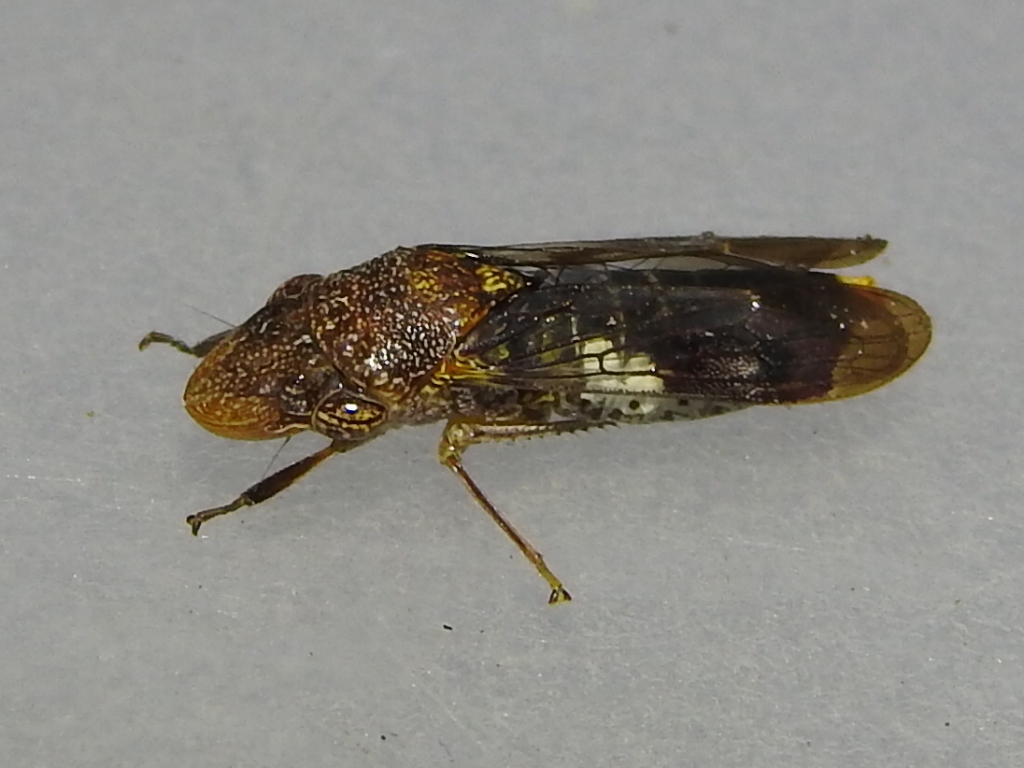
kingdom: Animalia
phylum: Arthropoda
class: Insecta
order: Hemiptera
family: Cicadellidae
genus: Homalodisca
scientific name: Homalodisca vitripennis
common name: Glassy-winged sharpshooter
